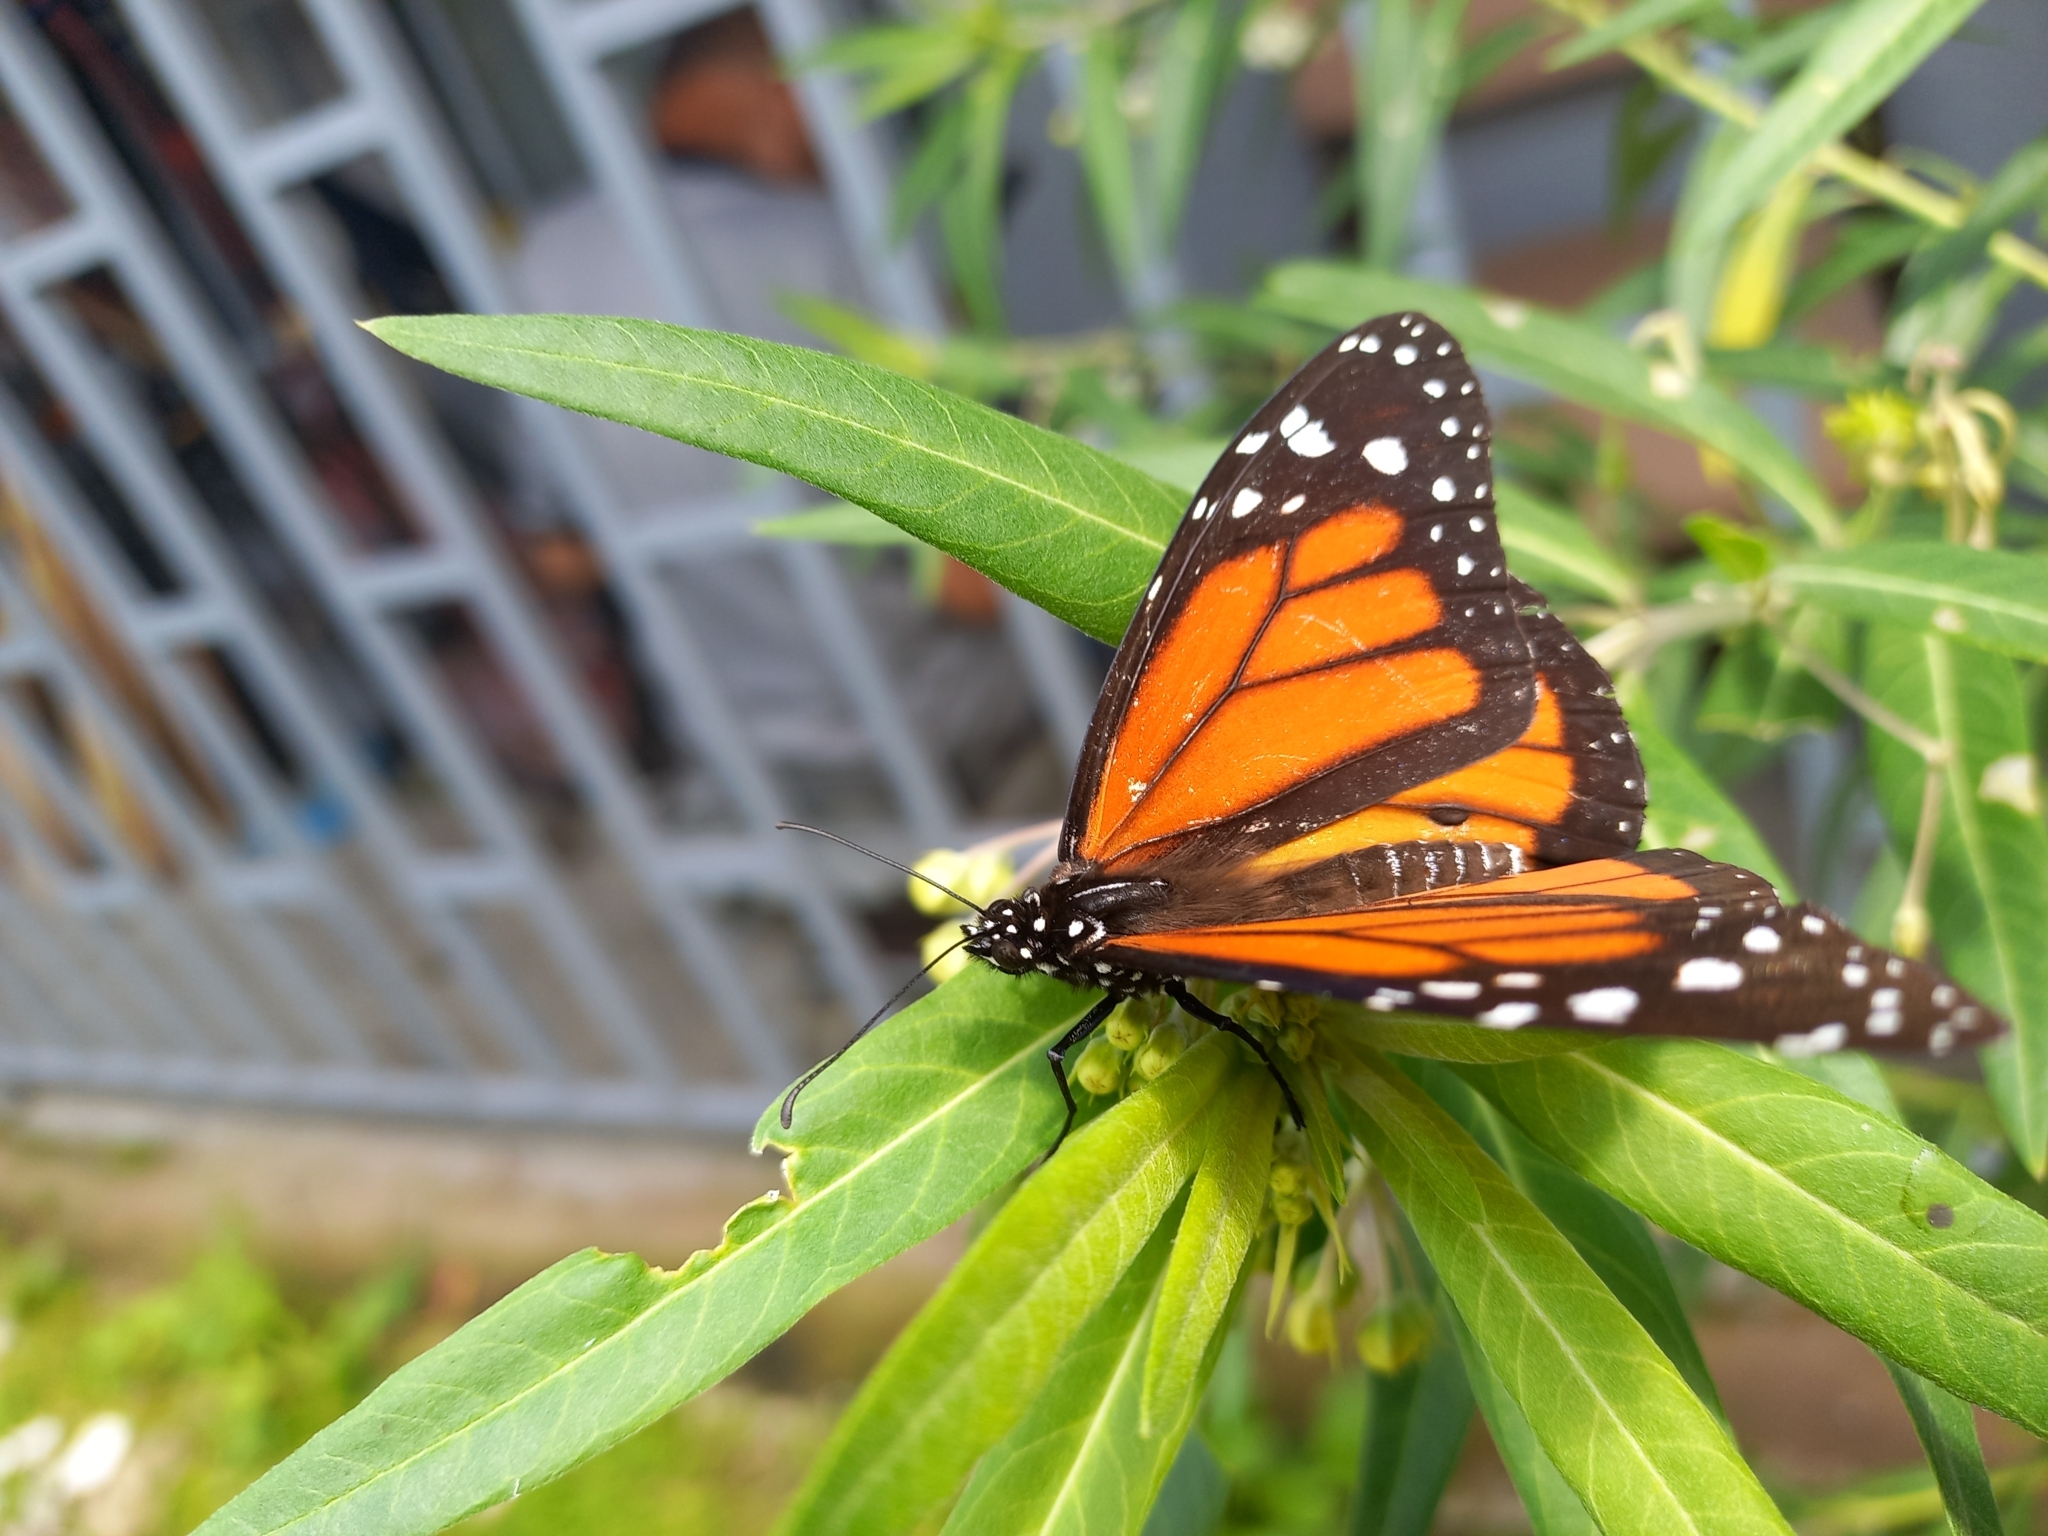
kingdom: Animalia
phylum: Arthropoda
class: Insecta
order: Lepidoptera
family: Nymphalidae
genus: Danaus
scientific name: Danaus plexippus
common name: Monarch
